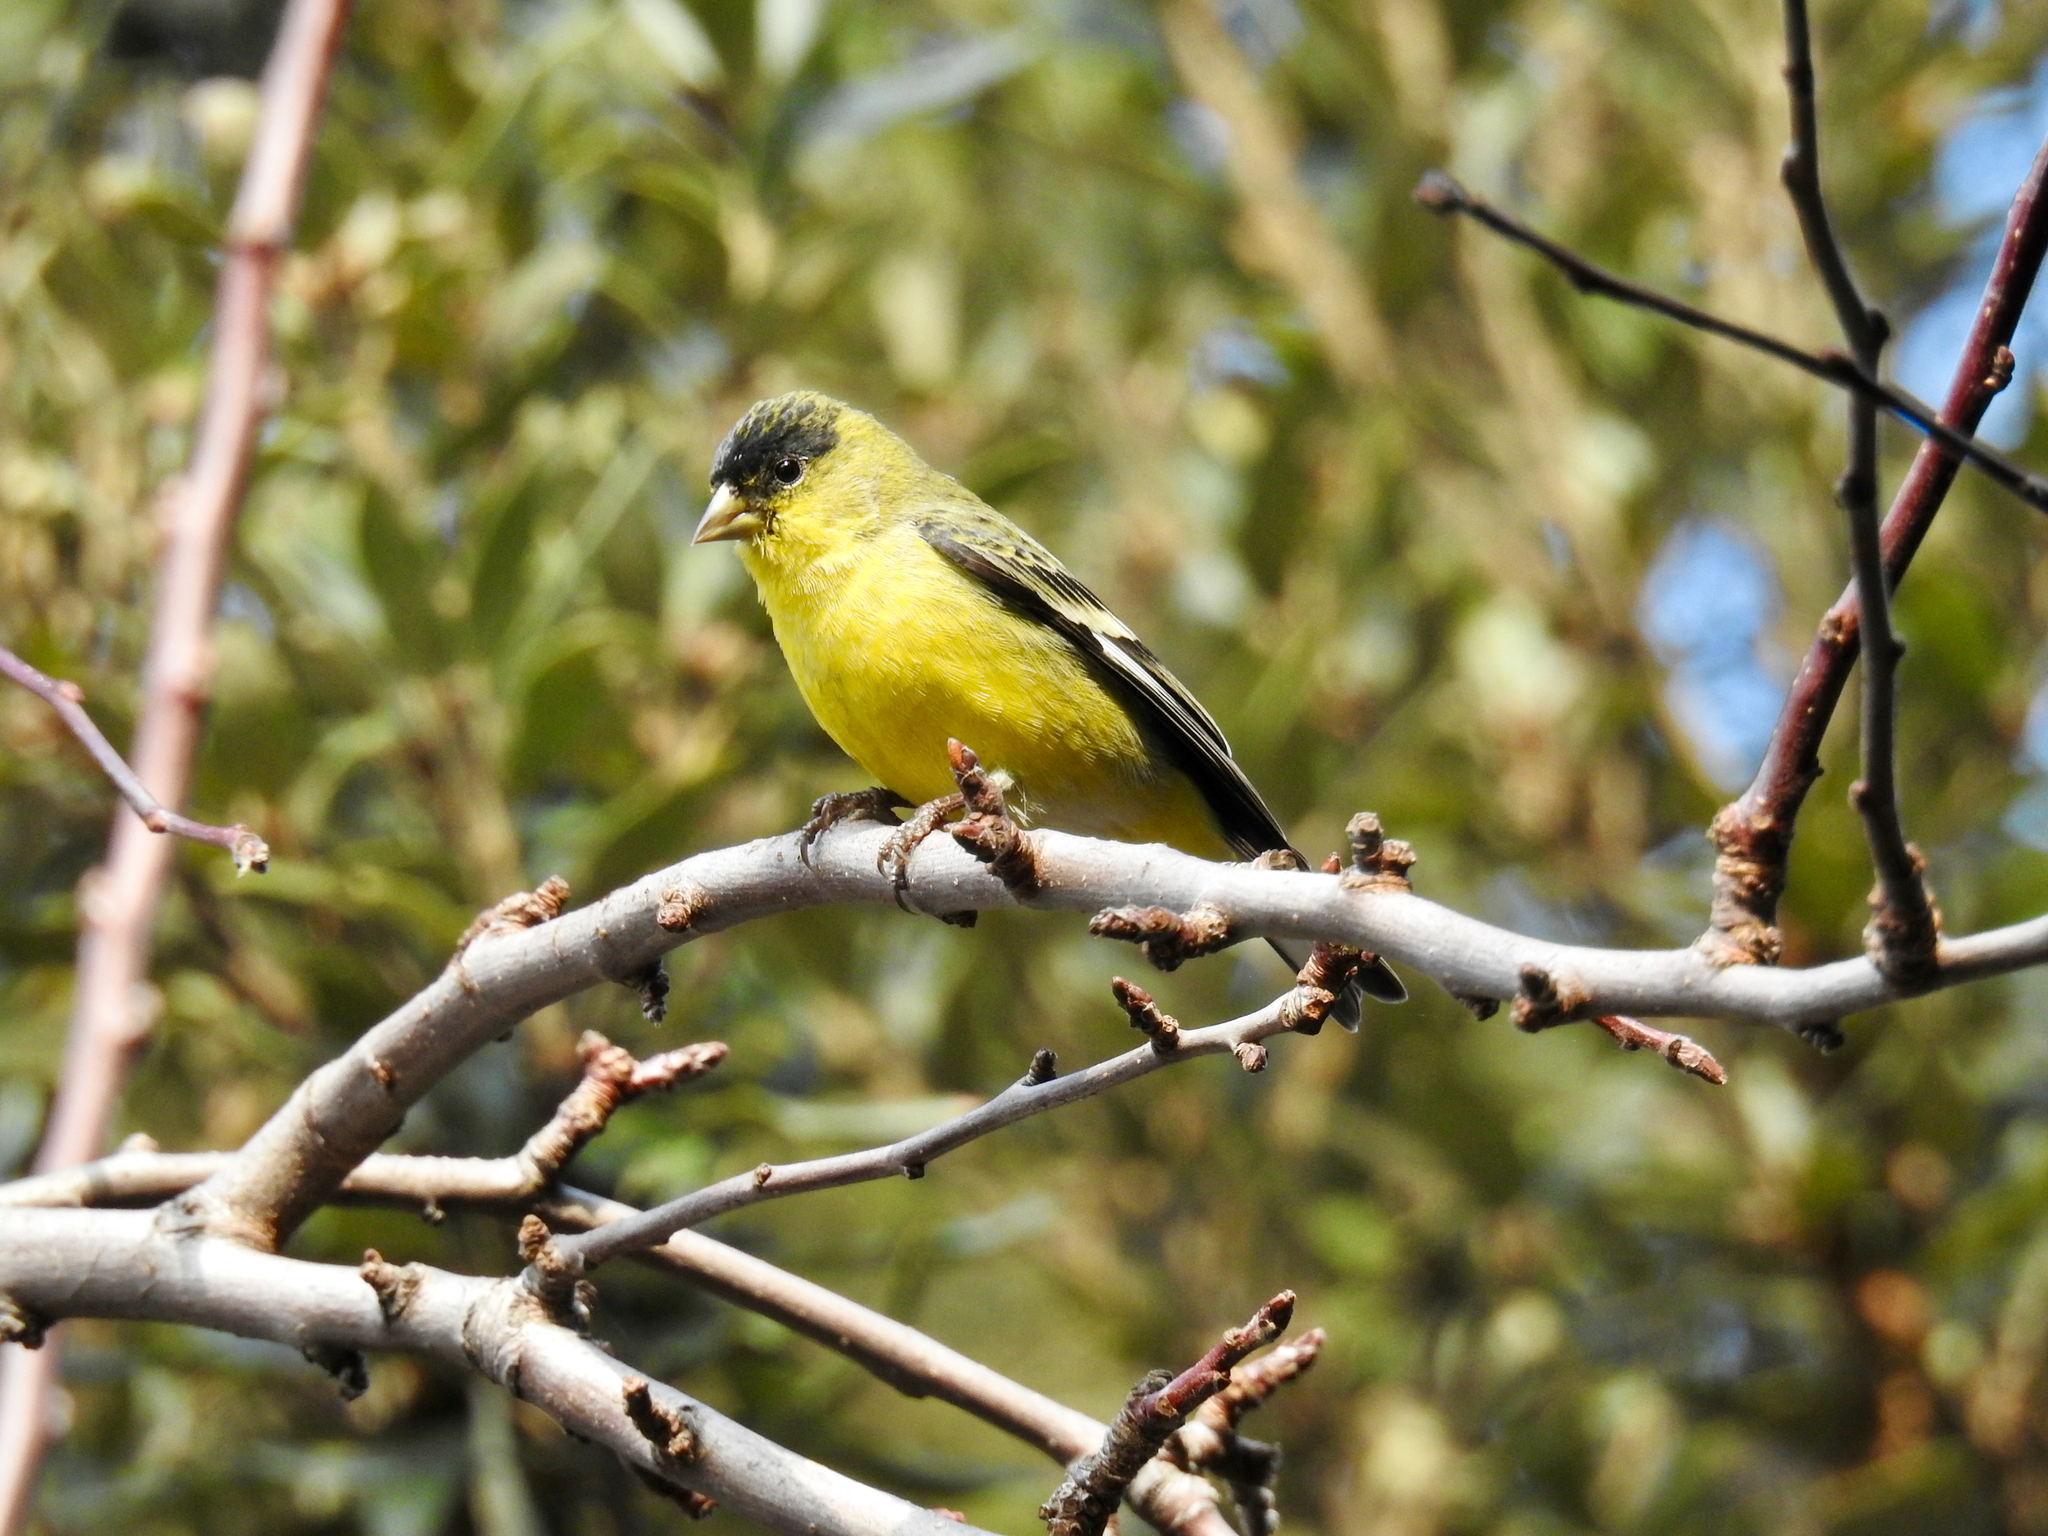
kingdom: Animalia
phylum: Chordata
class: Aves
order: Passeriformes
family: Fringillidae
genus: Spinus
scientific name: Spinus psaltria
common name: Lesser goldfinch
